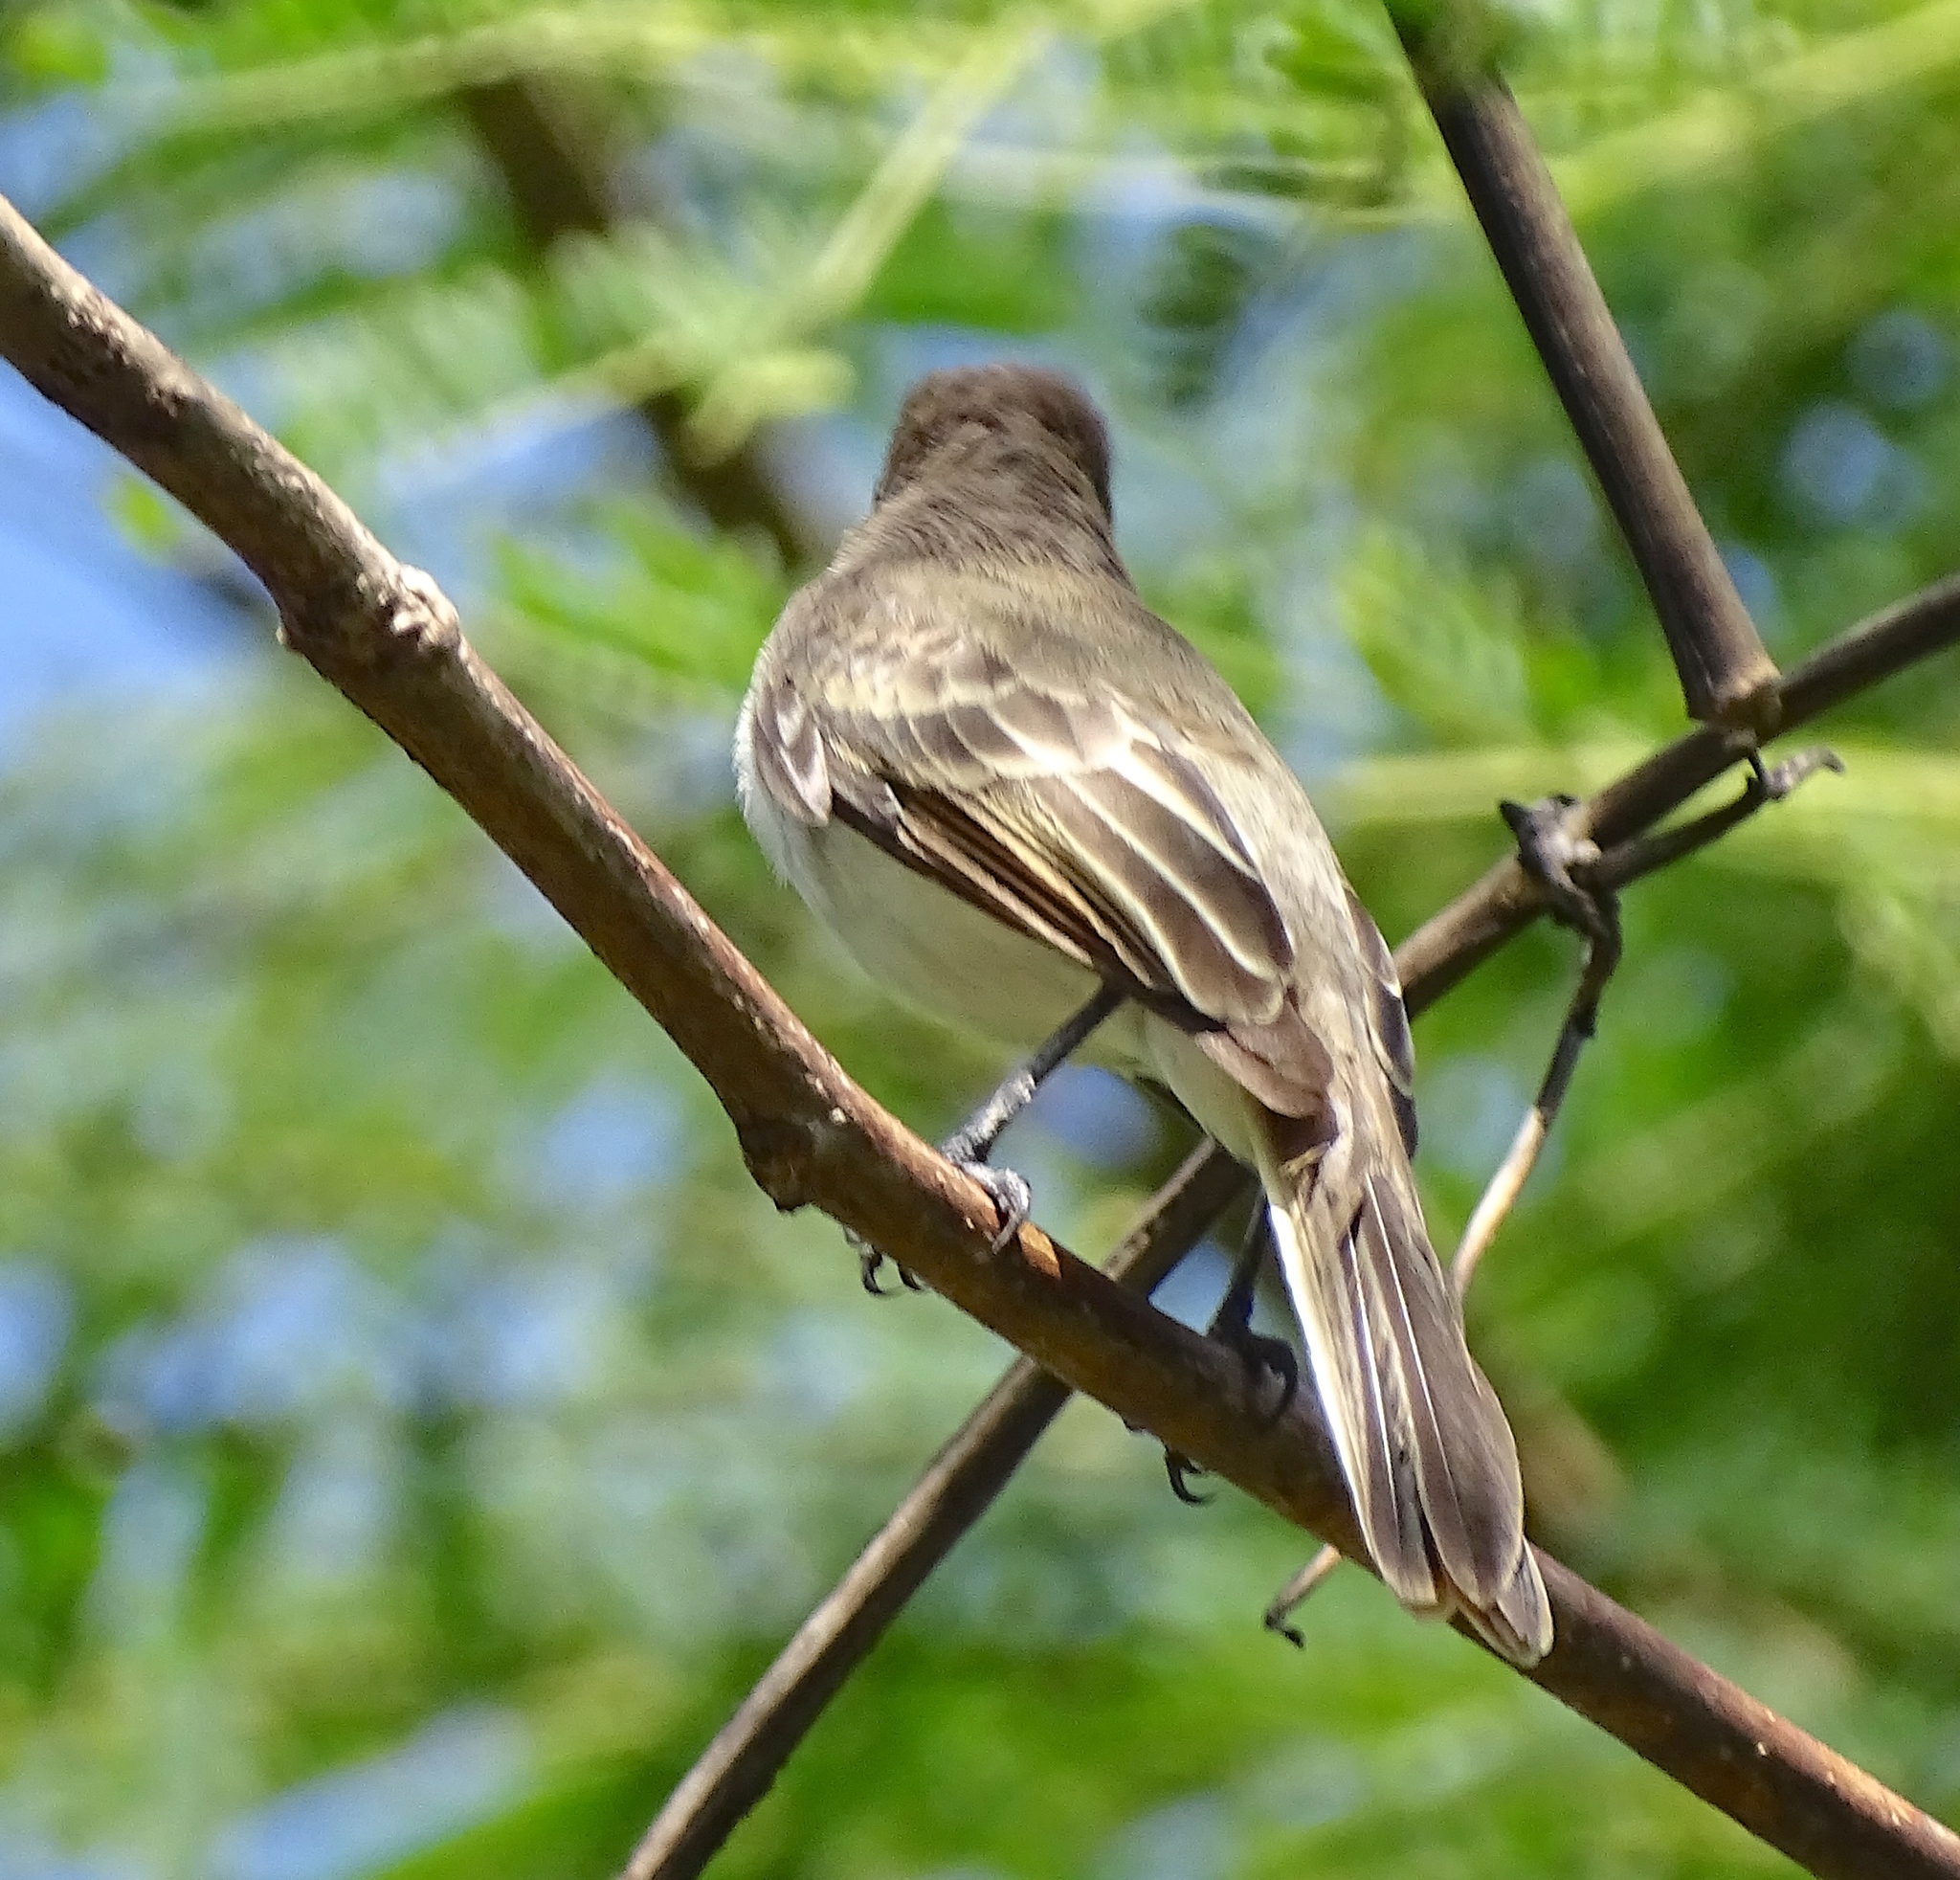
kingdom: Animalia
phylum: Chordata
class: Aves
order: Passeriformes
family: Tyrannidae
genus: Myiarchus
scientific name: Myiarchus antillarum
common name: Puerto rican flycatcher
